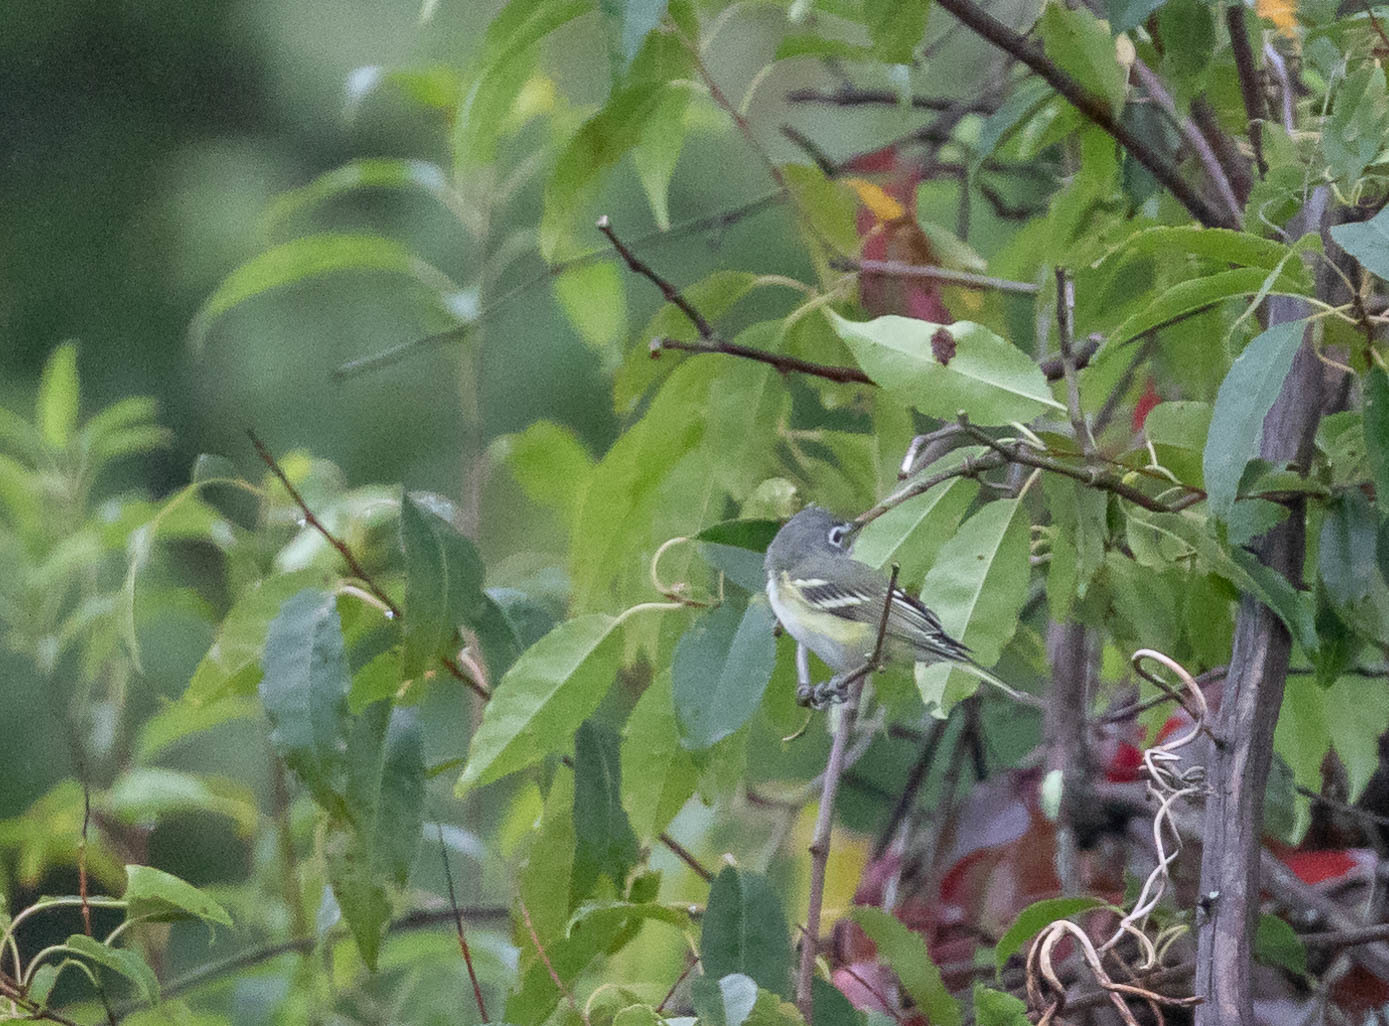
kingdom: Animalia
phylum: Chordata
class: Aves
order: Passeriformes
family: Vireonidae
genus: Vireo
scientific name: Vireo solitarius
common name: Blue-headed vireo
